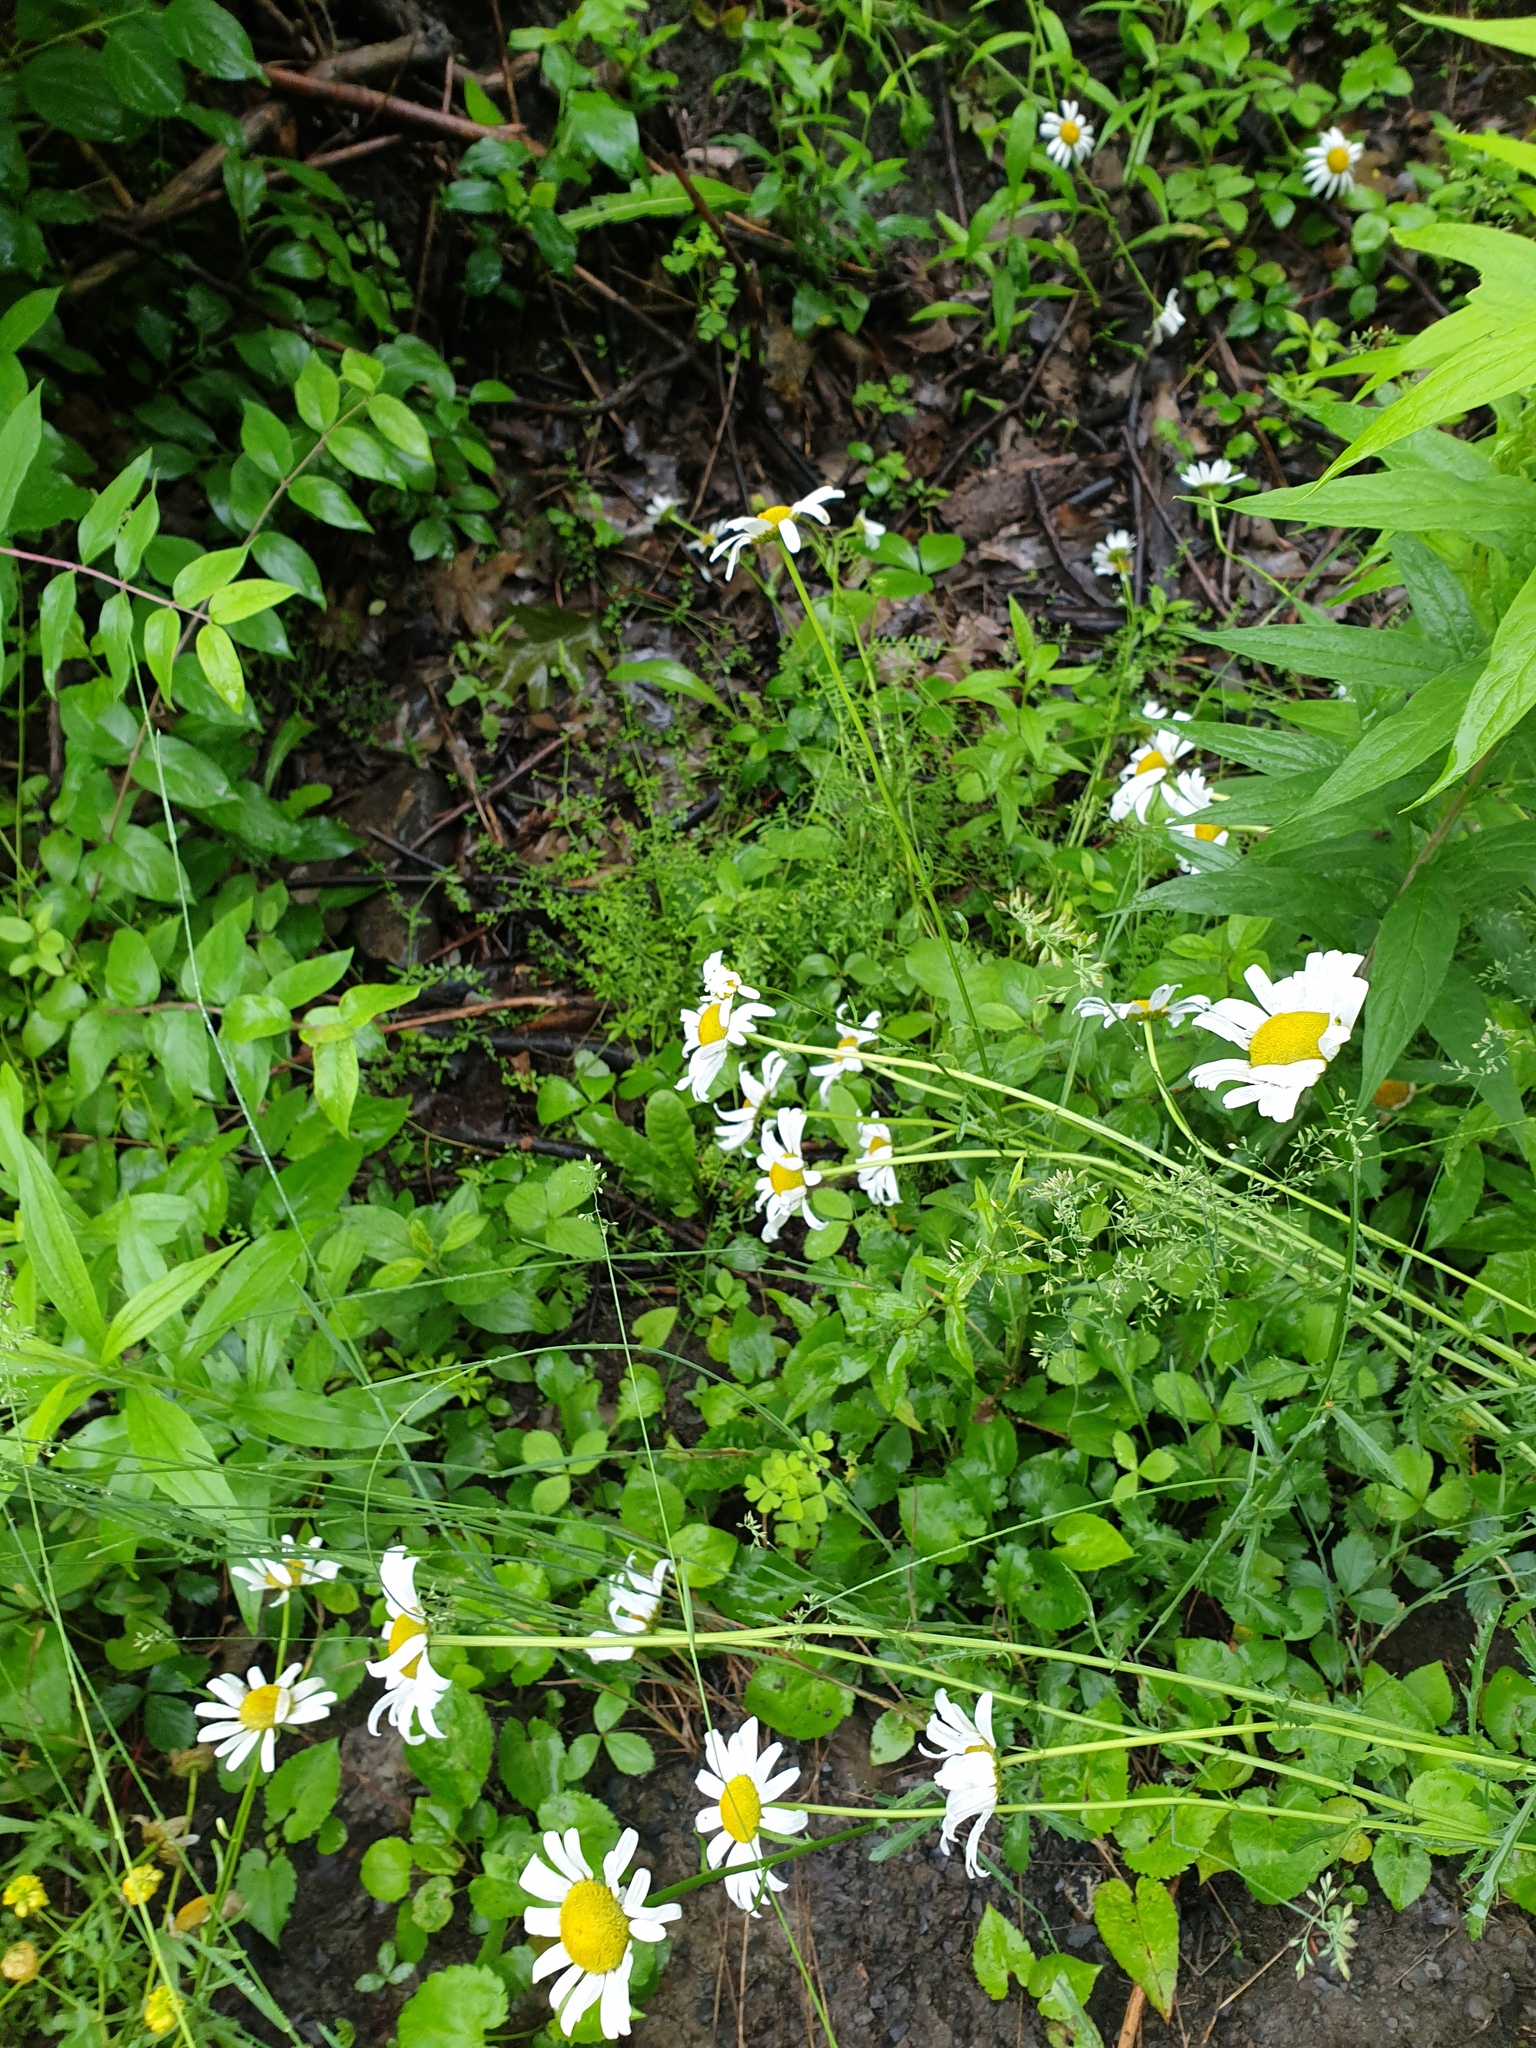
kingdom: Plantae
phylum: Tracheophyta
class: Magnoliopsida
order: Asterales
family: Asteraceae
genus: Leucanthemum
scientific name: Leucanthemum vulgare
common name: Oxeye daisy
